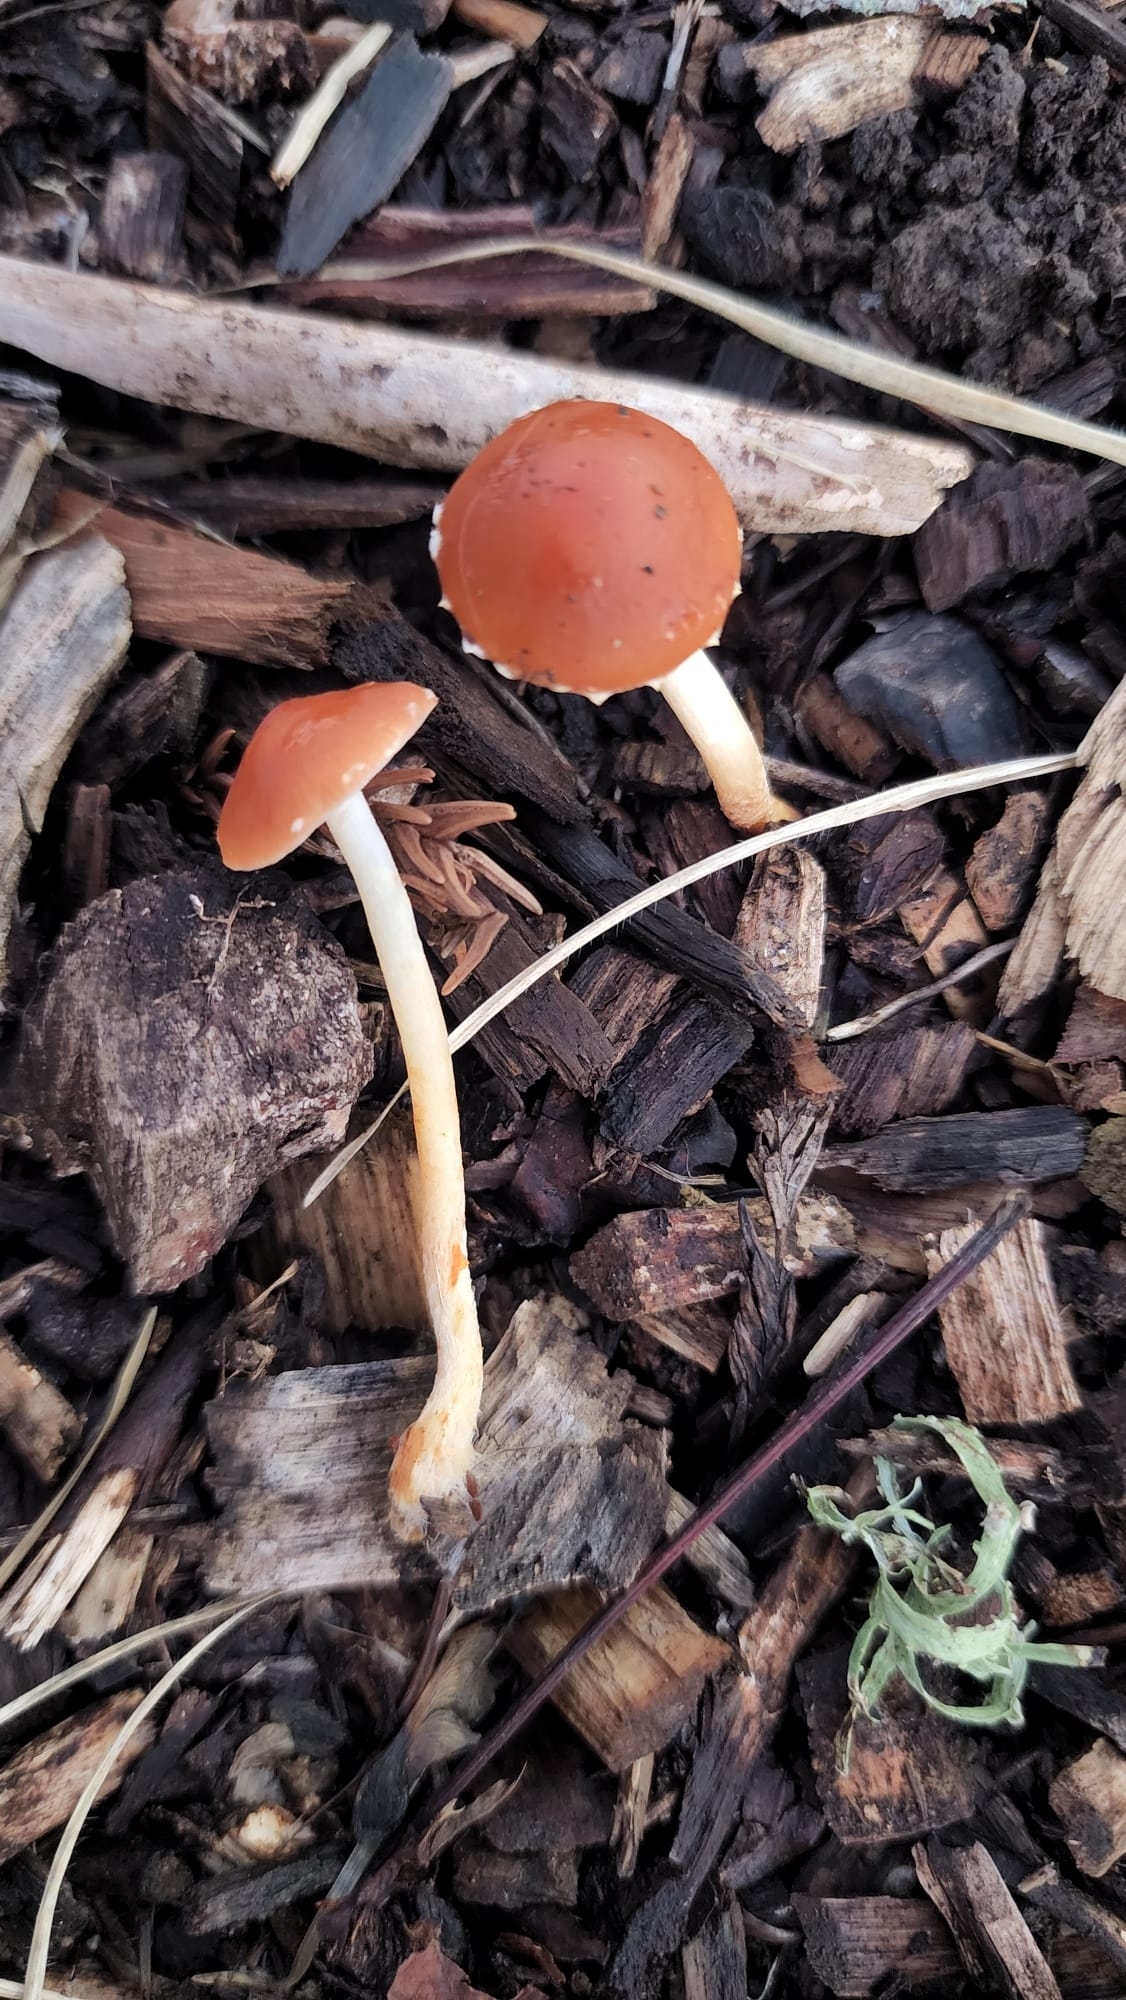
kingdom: Fungi
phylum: Basidiomycota
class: Agaricomycetes
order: Agaricales
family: Strophariaceae
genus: Leratiomyces
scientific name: Leratiomyces ceres
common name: Redlead roundhead
